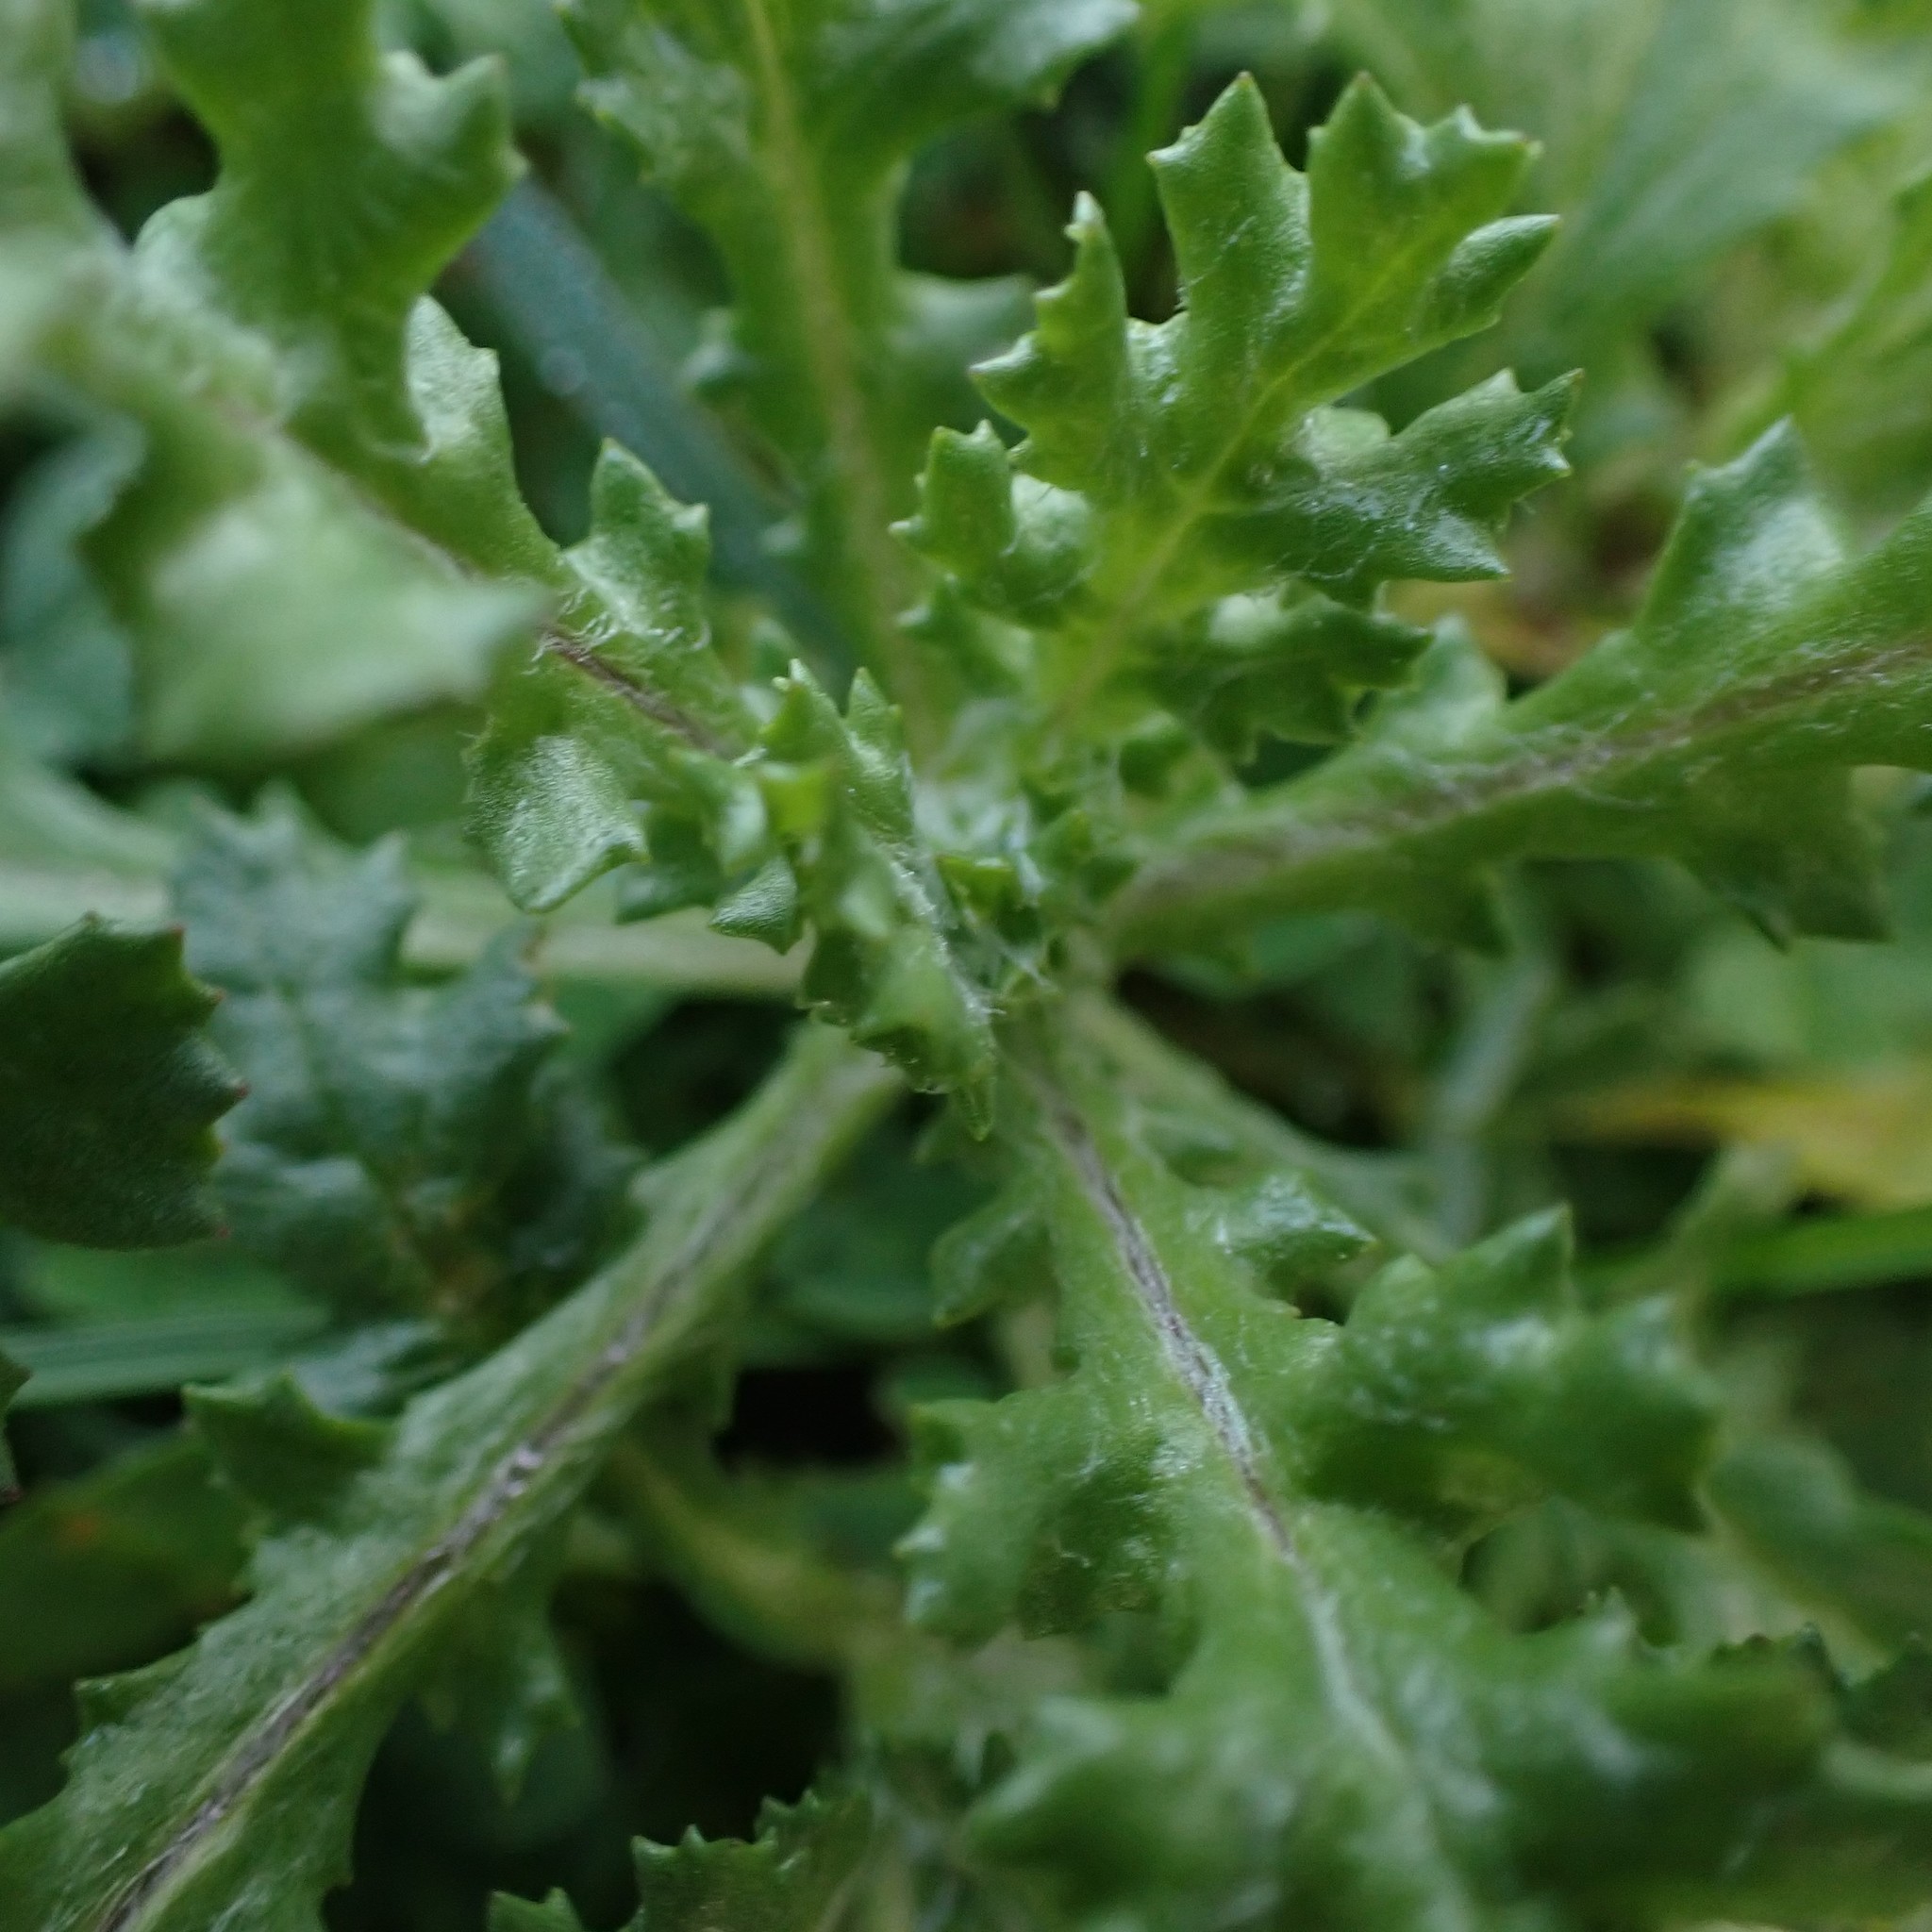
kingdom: Plantae
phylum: Tracheophyta
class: Magnoliopsida
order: Asterales
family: Asteraceae
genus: Senecio
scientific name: Senecio vulgaris
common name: Old-man-in-the-spring
